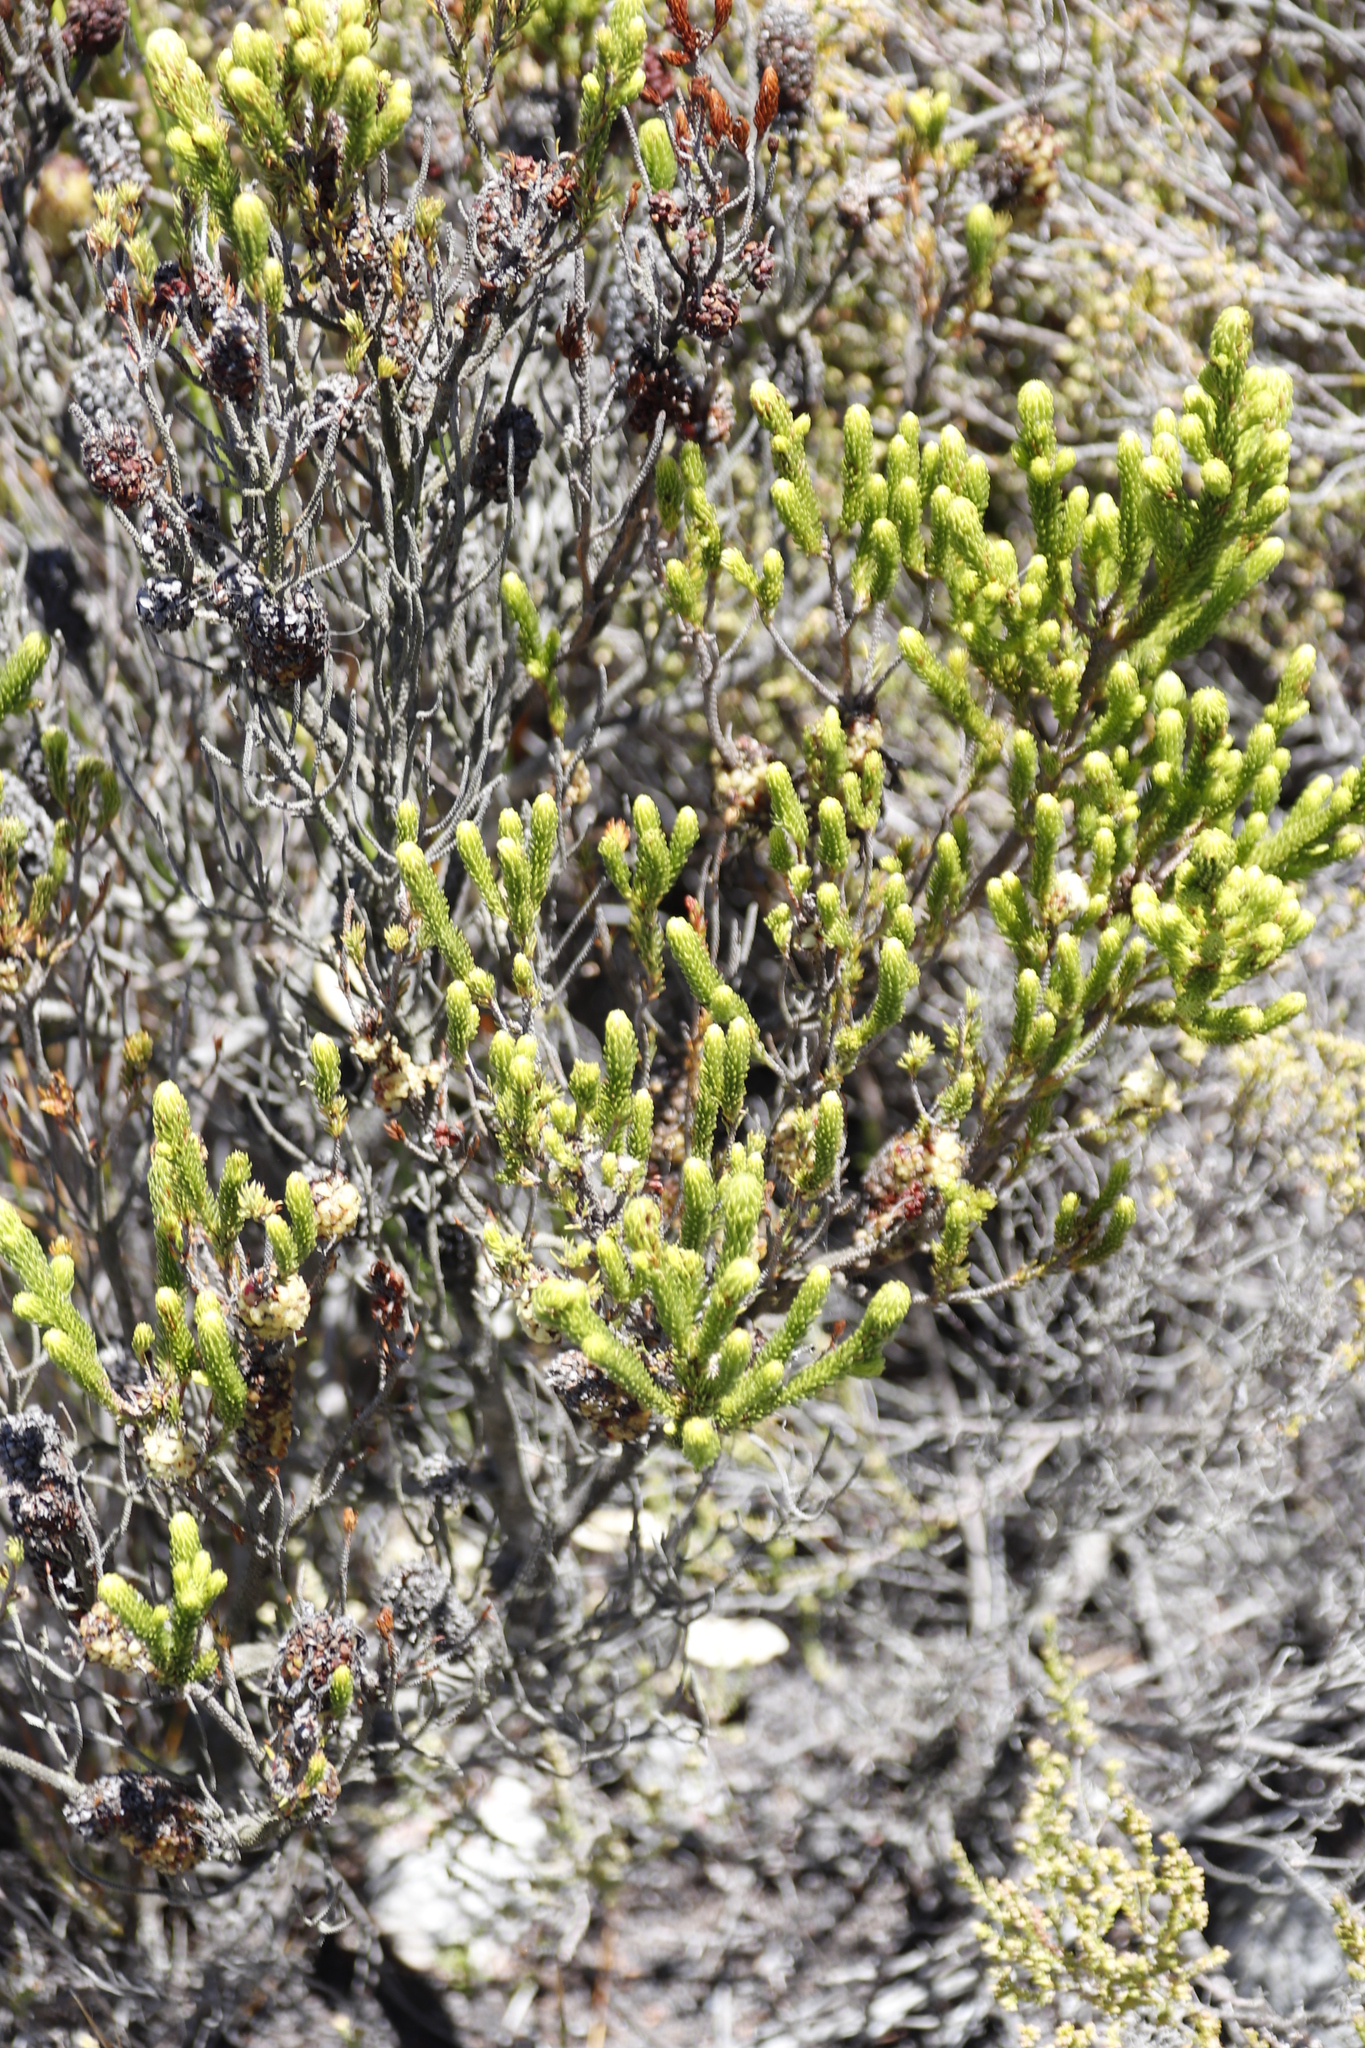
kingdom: Plantae
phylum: Tracheophyta
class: Magnoliopsida
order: Ericales
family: Ericaceae
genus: Erica
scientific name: Erica sessiliflora
